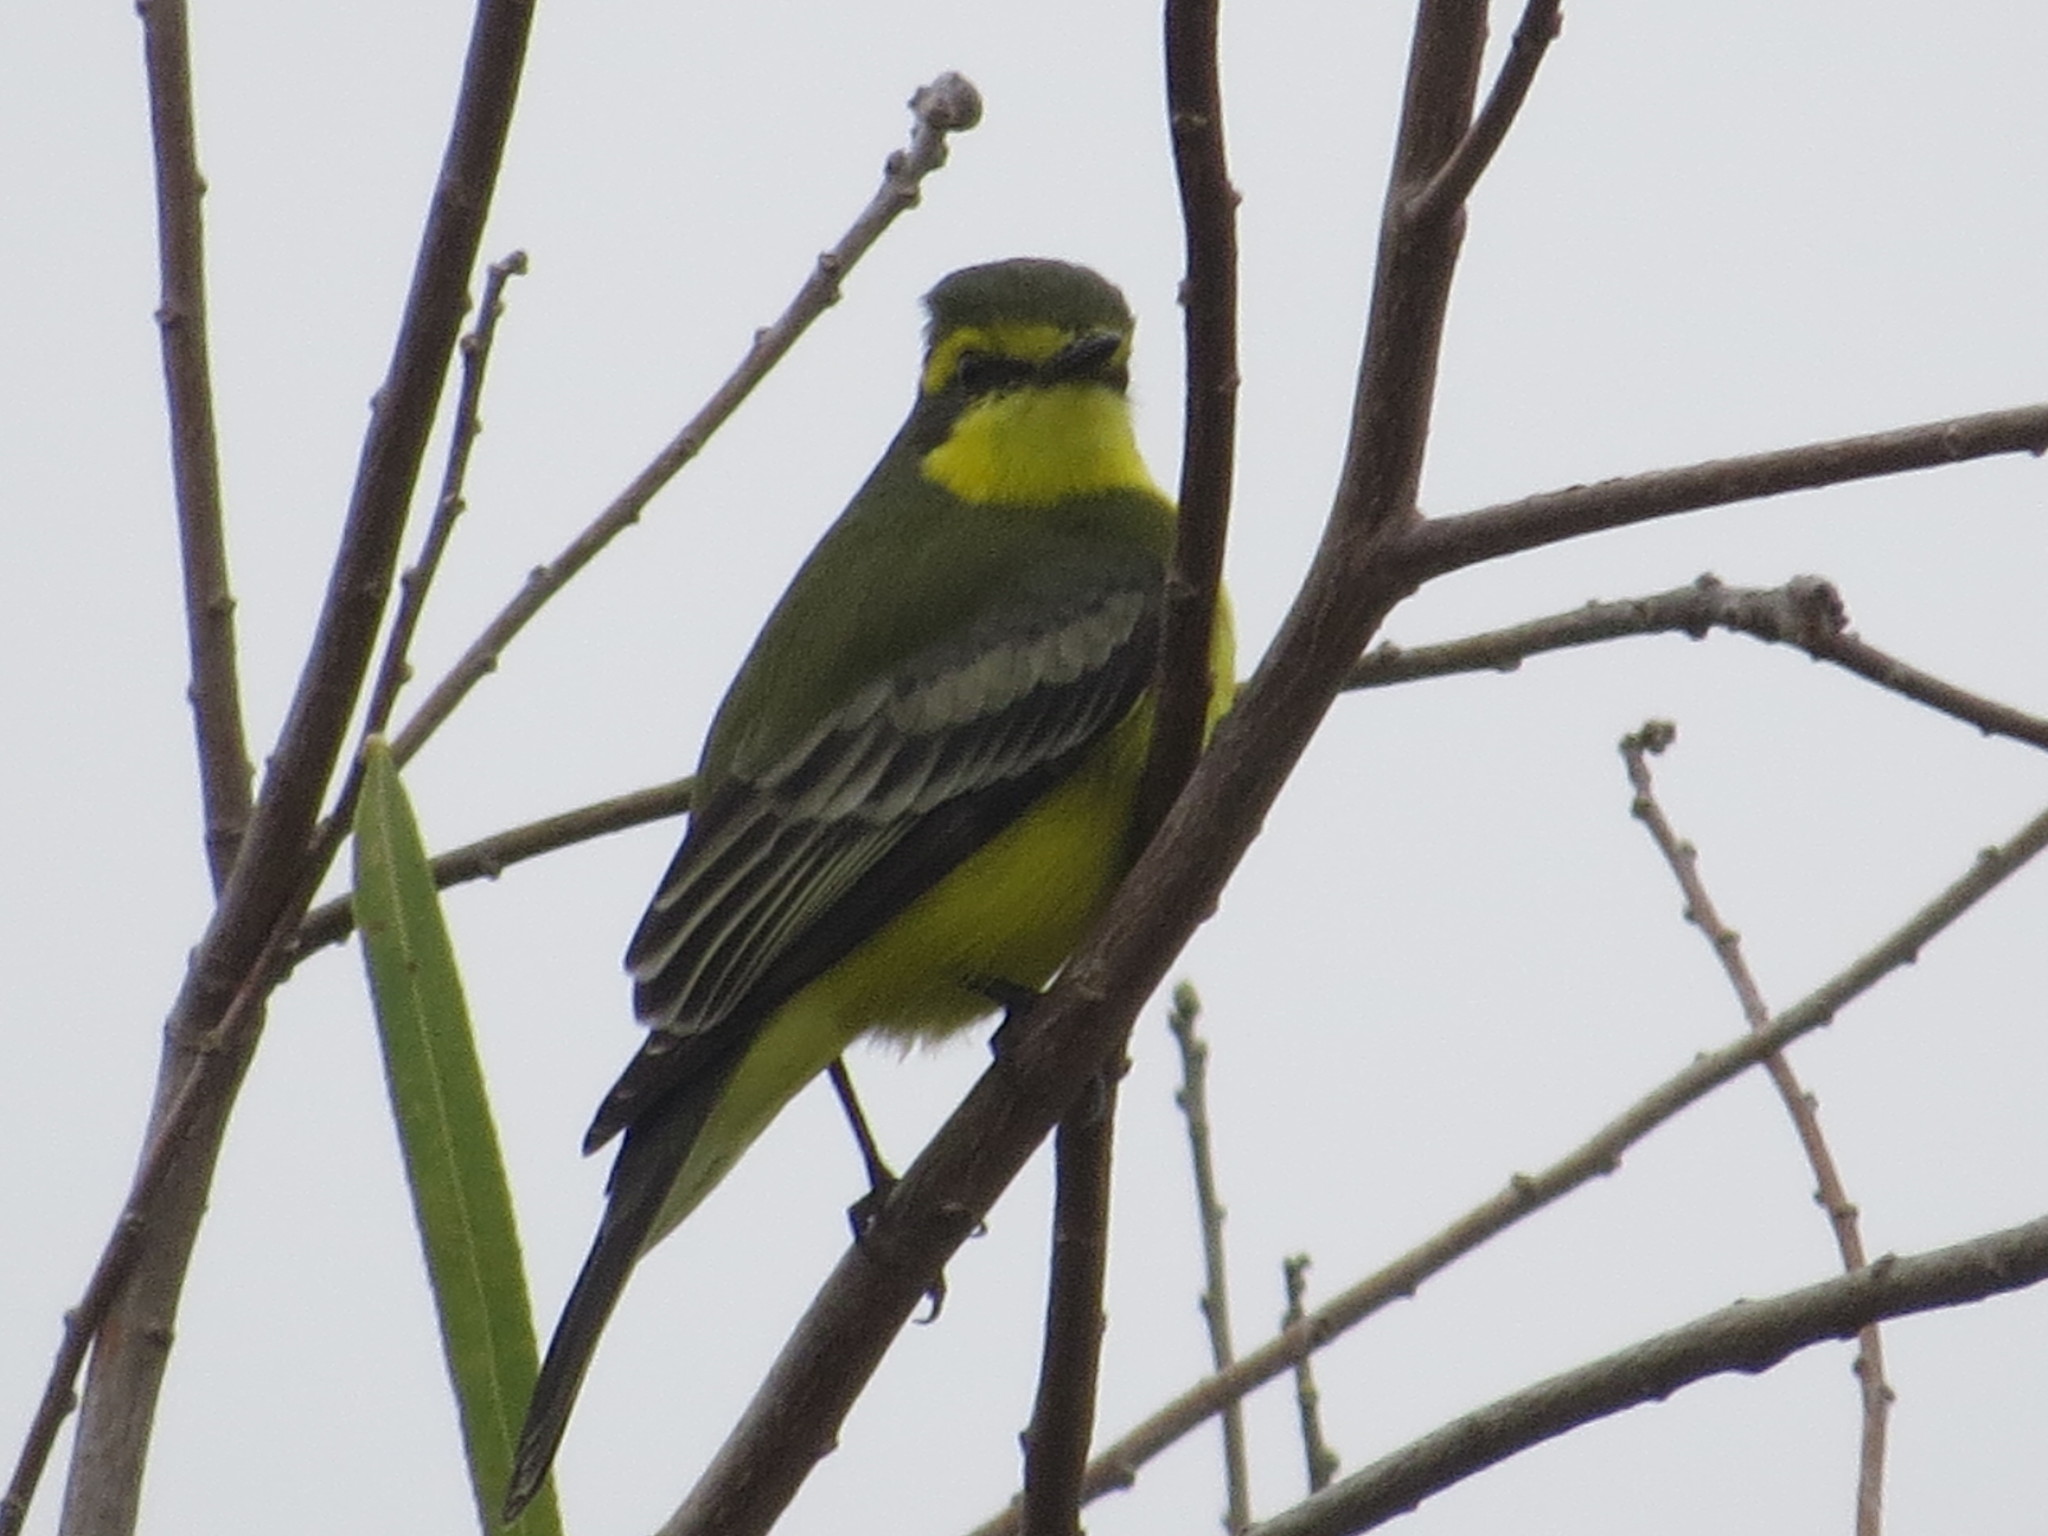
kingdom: Animalia
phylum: Chordata
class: Aves
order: Passeriformes
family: Tyrannidae
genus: Satrapa
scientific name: Satrapa icterophrys
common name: Yellow-browed tyrant
